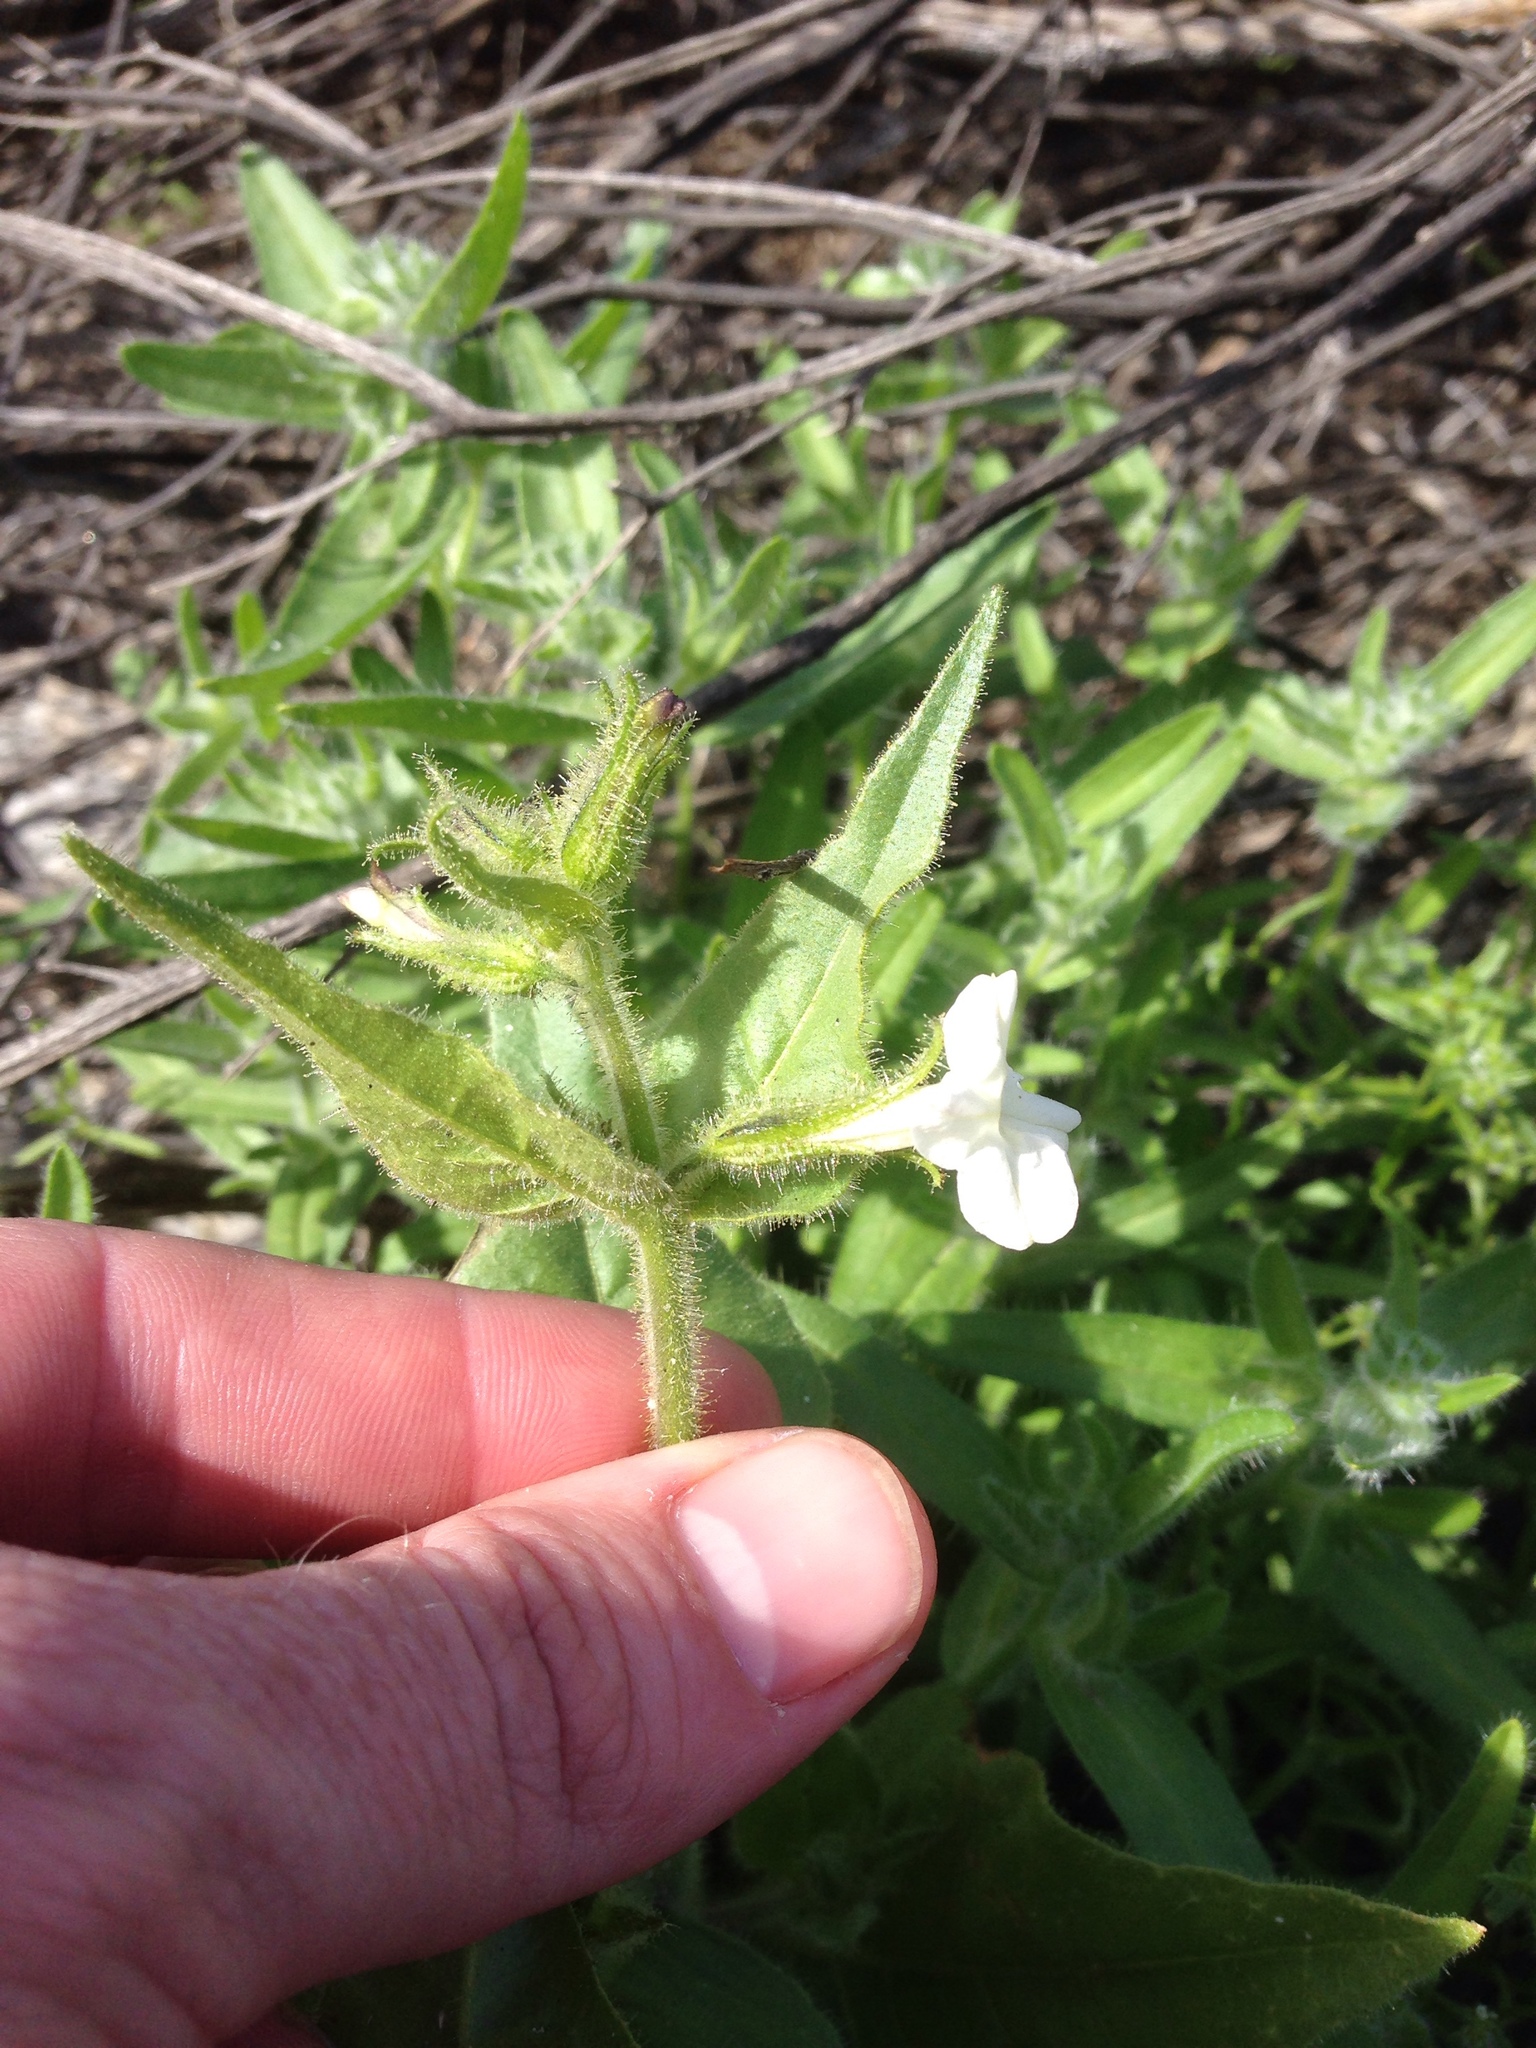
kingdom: Plantae
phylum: Tracheophyta
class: Magnoliopsida
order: Solanales
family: Solanaceae
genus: Nicotiana
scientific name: Nicotiana clevelandii
